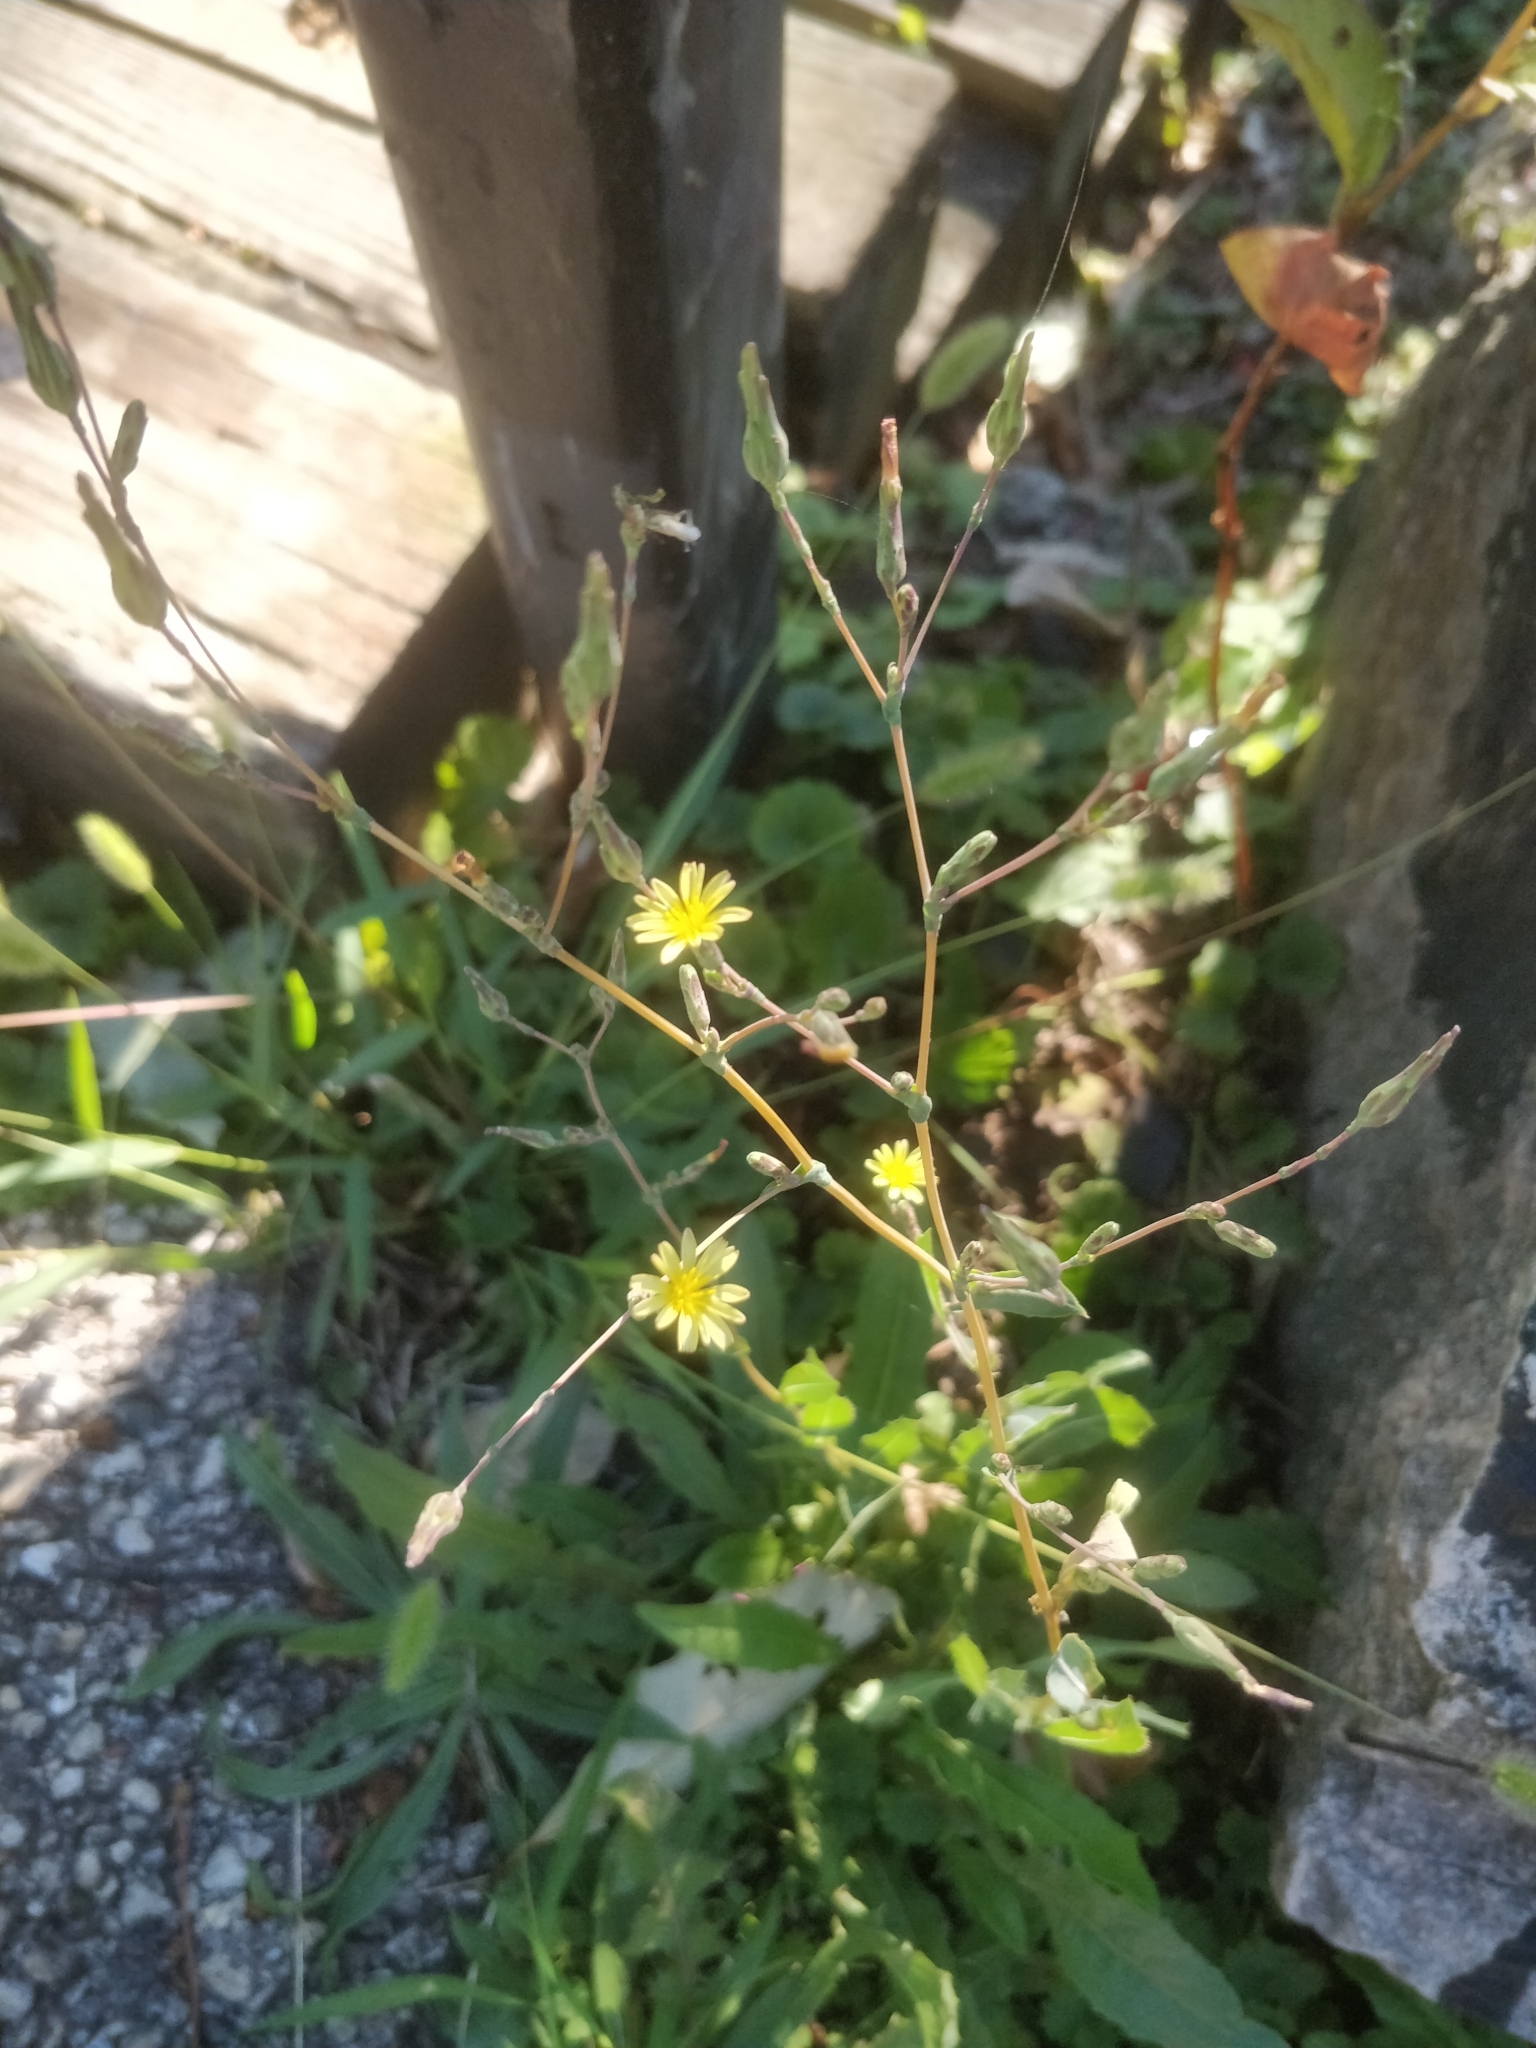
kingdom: Plantae
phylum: Tracheophyta
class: Magnoliopsida
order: Asterales
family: Asteraceae
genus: Lactuca
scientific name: Lactuca serriola
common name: Prickly lettuce
